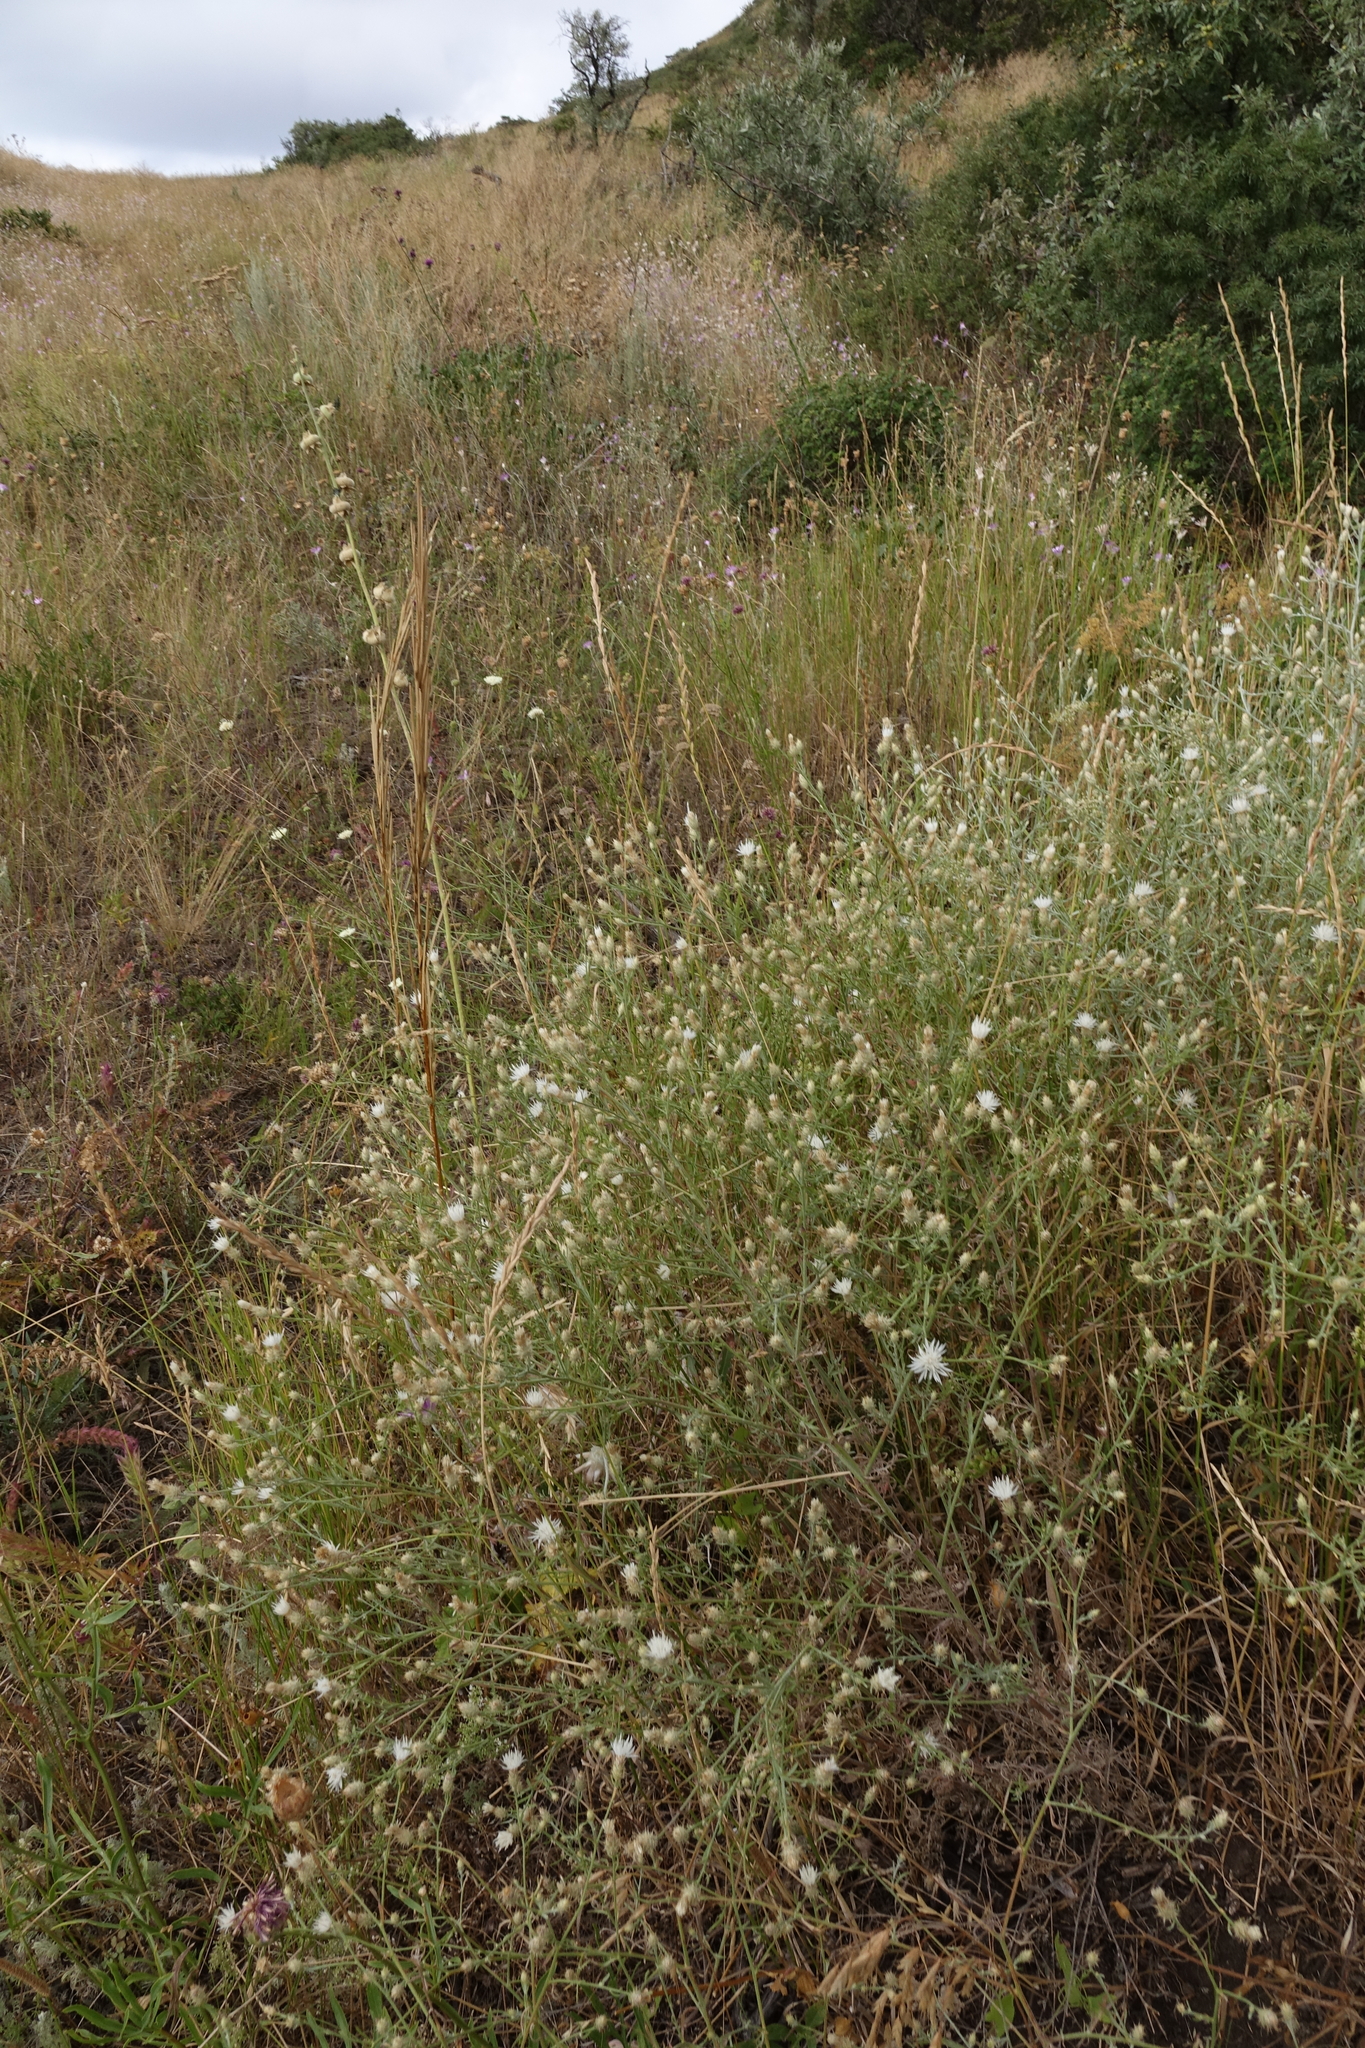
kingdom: Plantae
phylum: Tracheophyta
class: Magnoliopsida
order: Asterales
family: Asteraceae
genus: Centaurea
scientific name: Centaurea diffusa
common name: Diffuse knapweed
